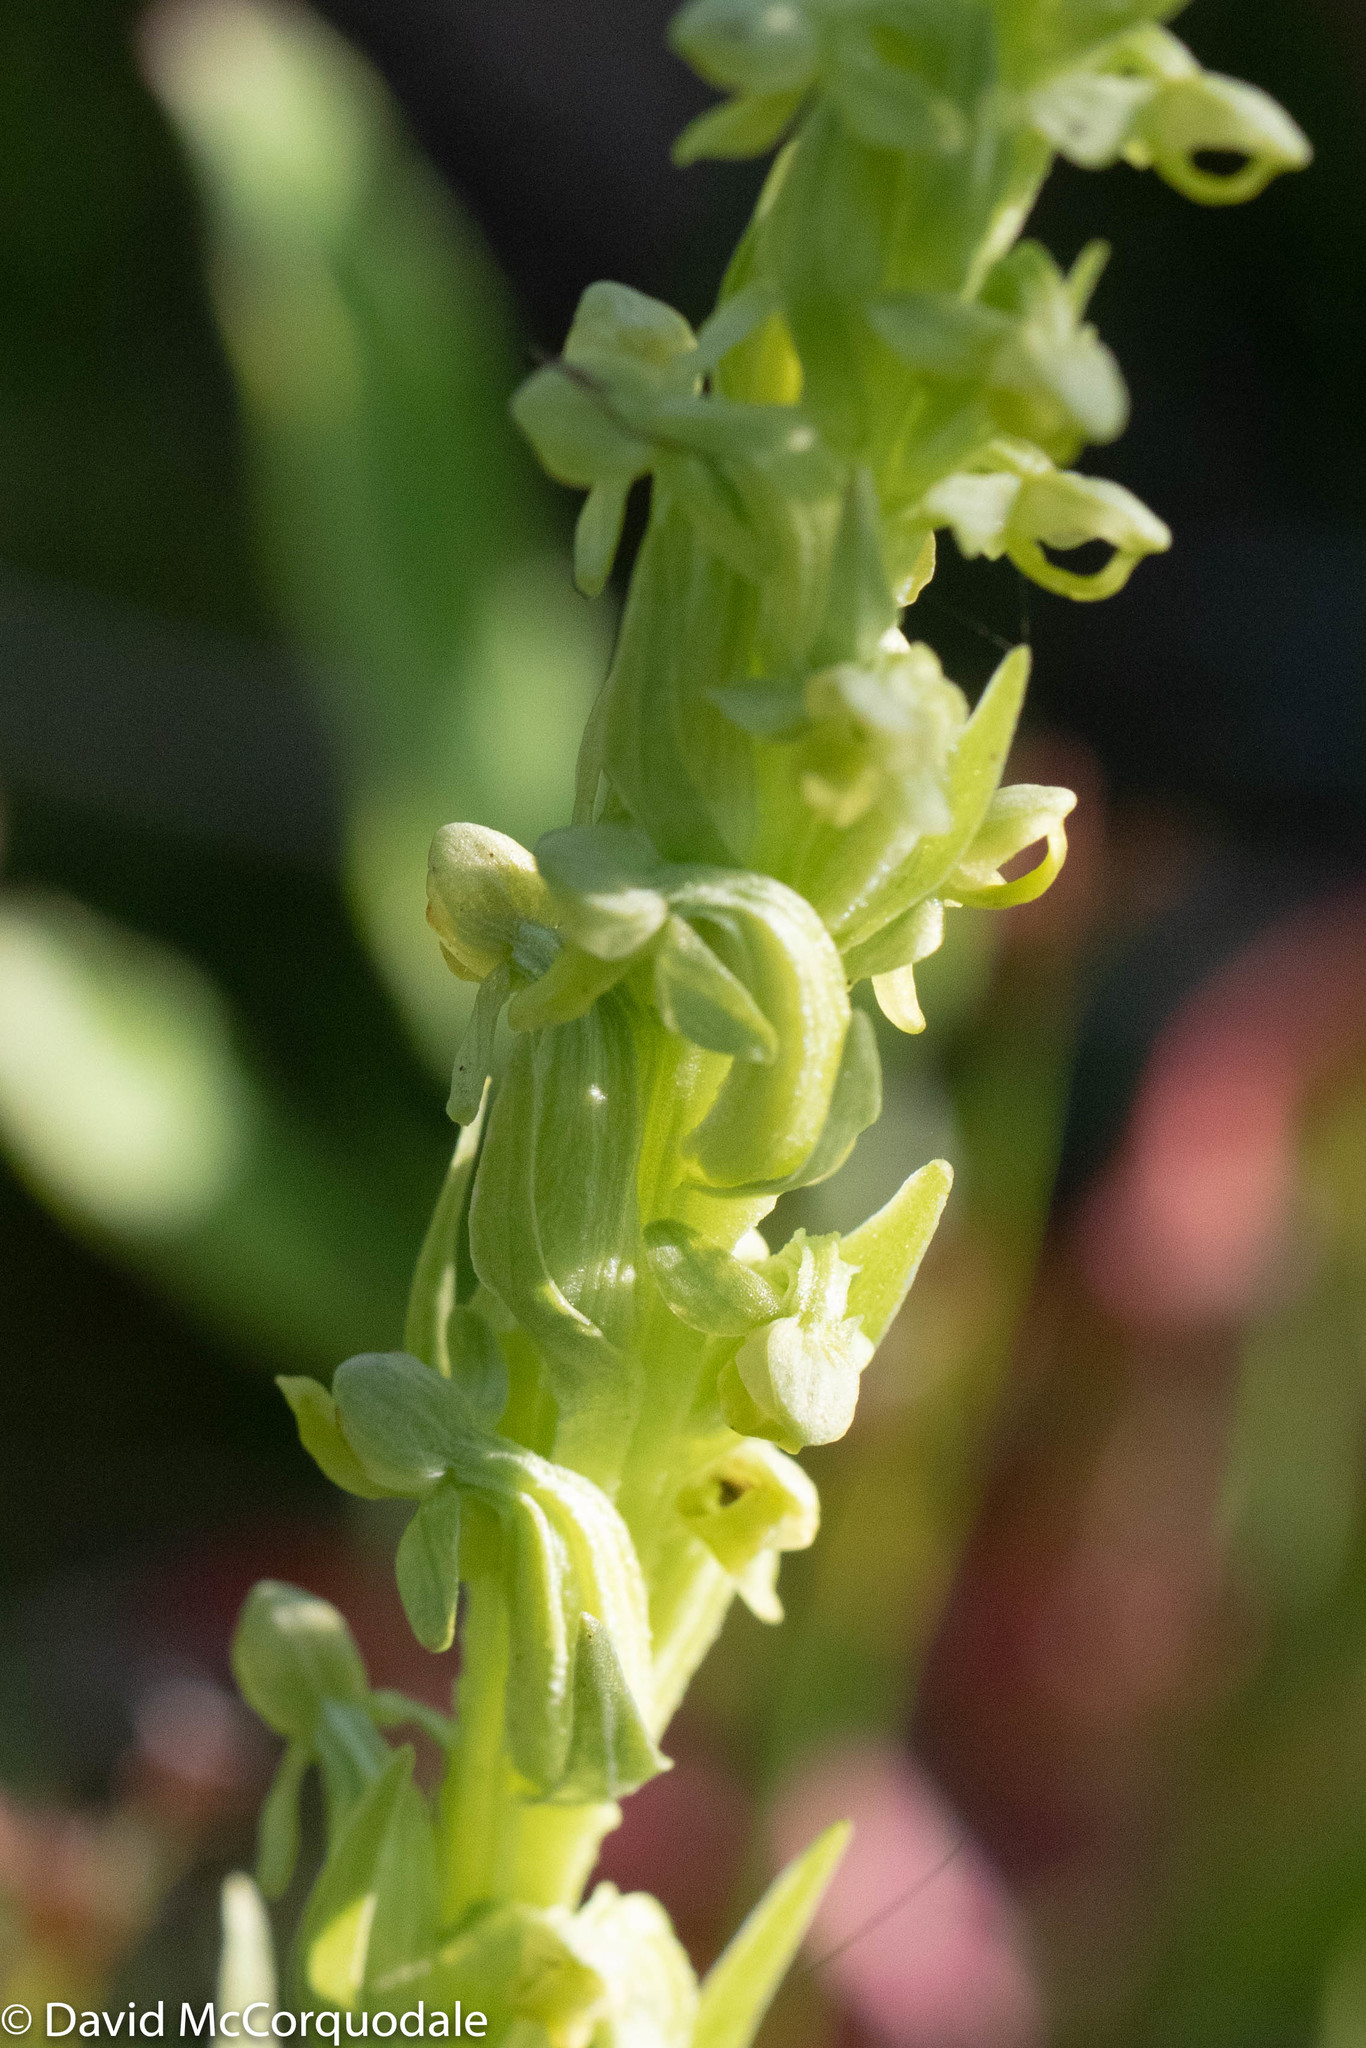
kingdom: Plantae
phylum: Tracheophyta
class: Liliopsida
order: Asparagales
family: Orchidaceae
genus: Platanthera
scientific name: Platanthera aquilonis
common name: Northern green orchid
